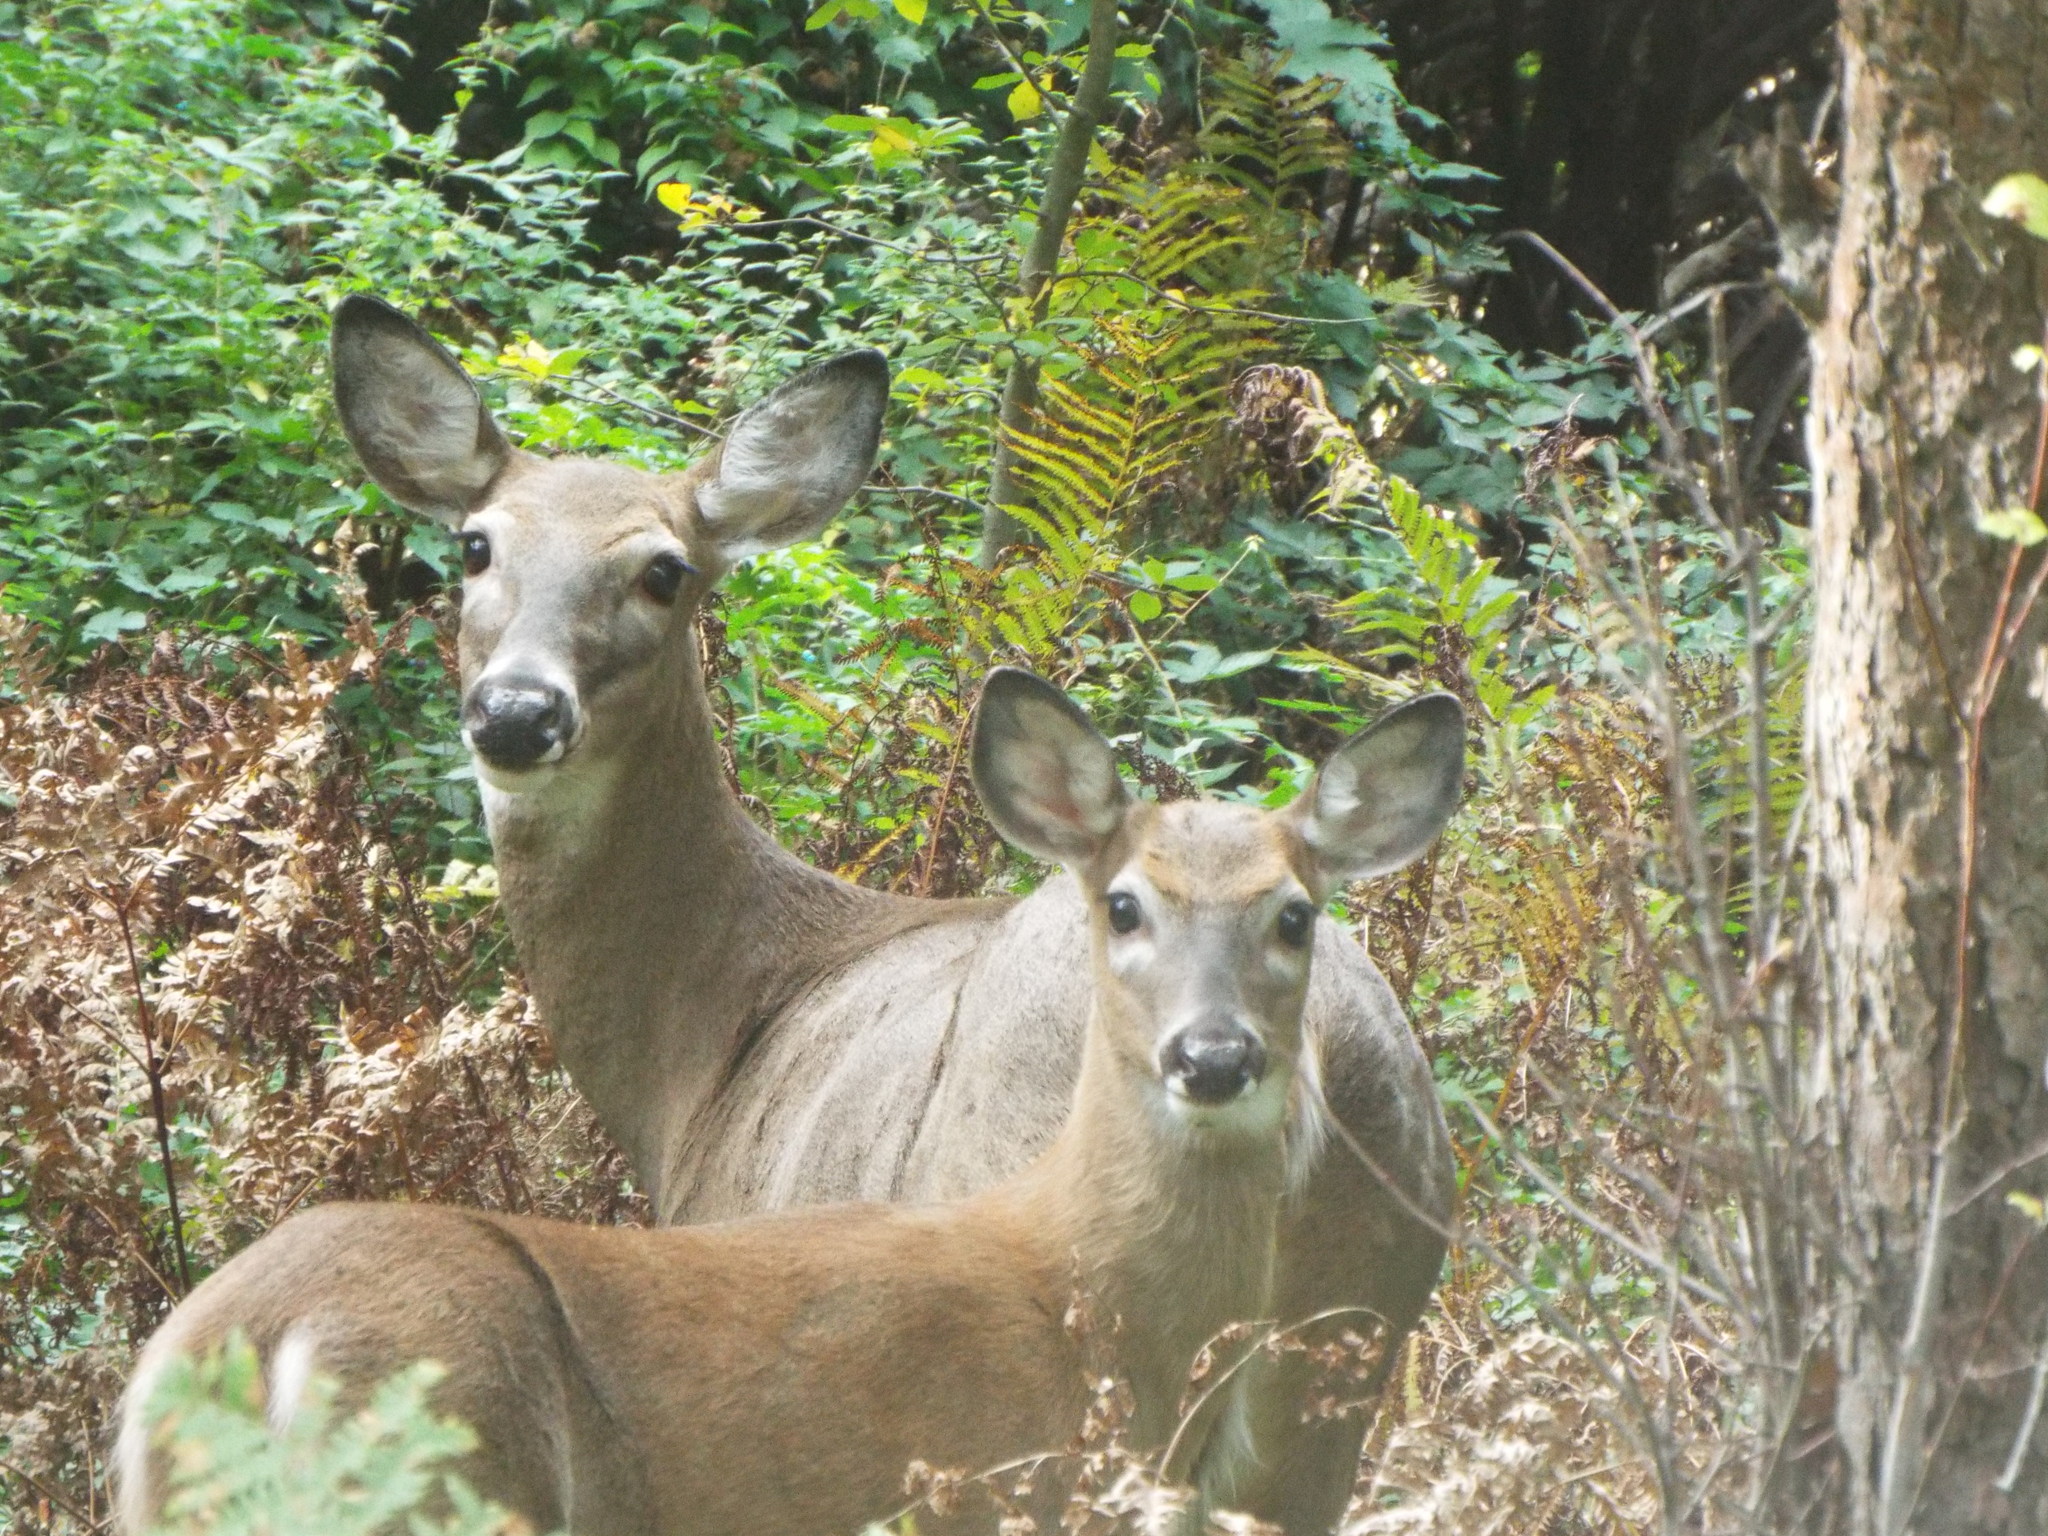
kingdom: Animalia
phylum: Chordata
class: Mammalia
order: Artiodactyla
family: Cervidae
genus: Odocoileus
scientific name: Odocoileus virginianus
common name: White-tailed deer
